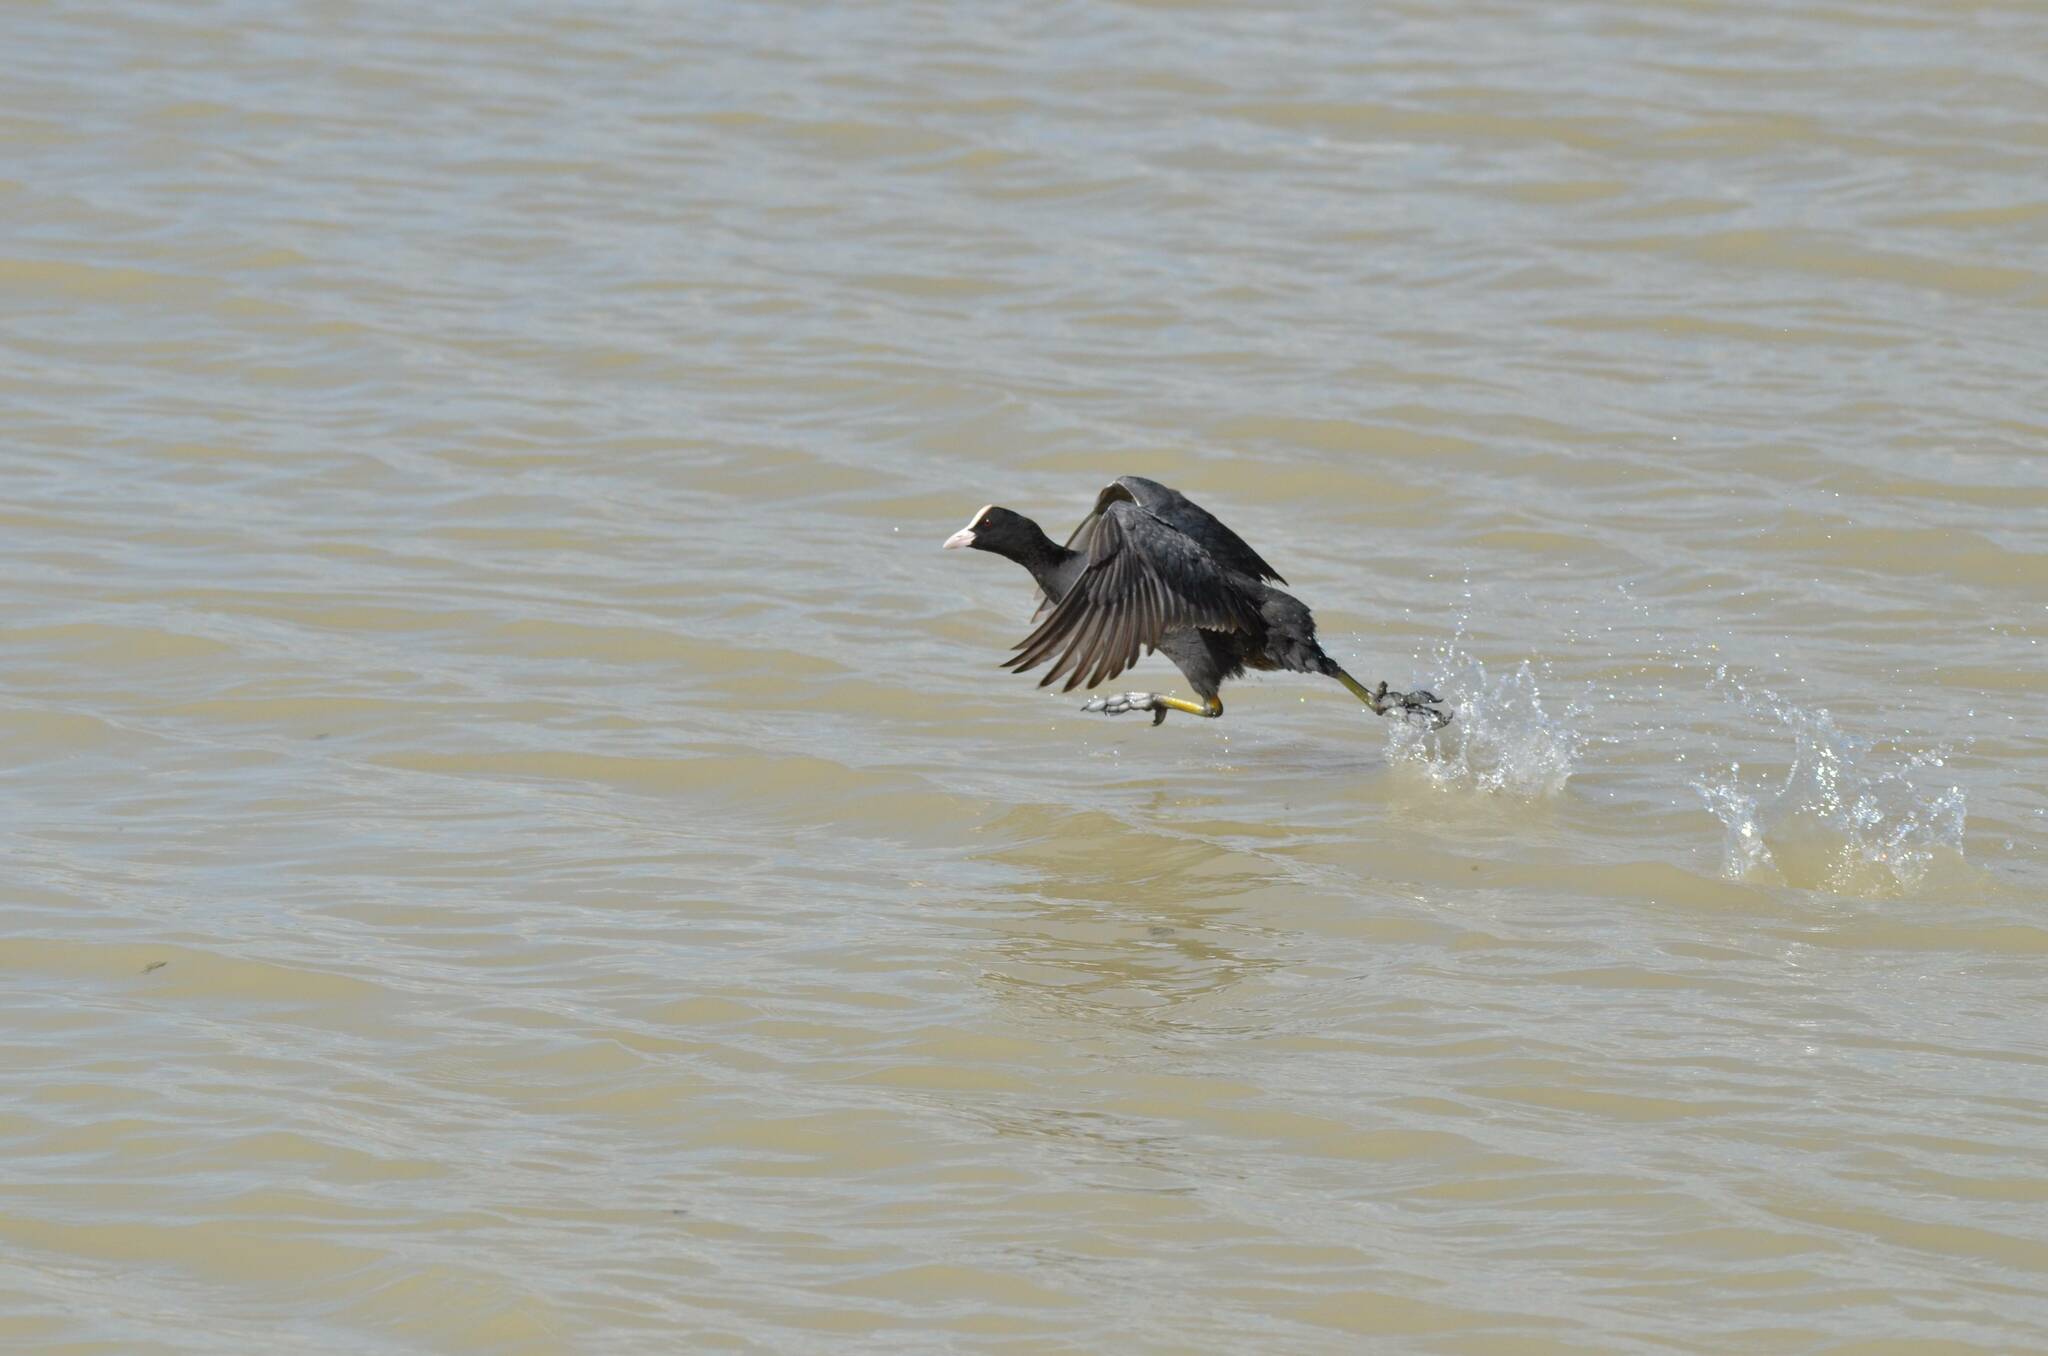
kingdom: Animalia
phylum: Chordata
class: Aves
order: Gruiformes
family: Rallidae
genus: Fulica
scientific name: Fulica atra
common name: Eurasian coot
